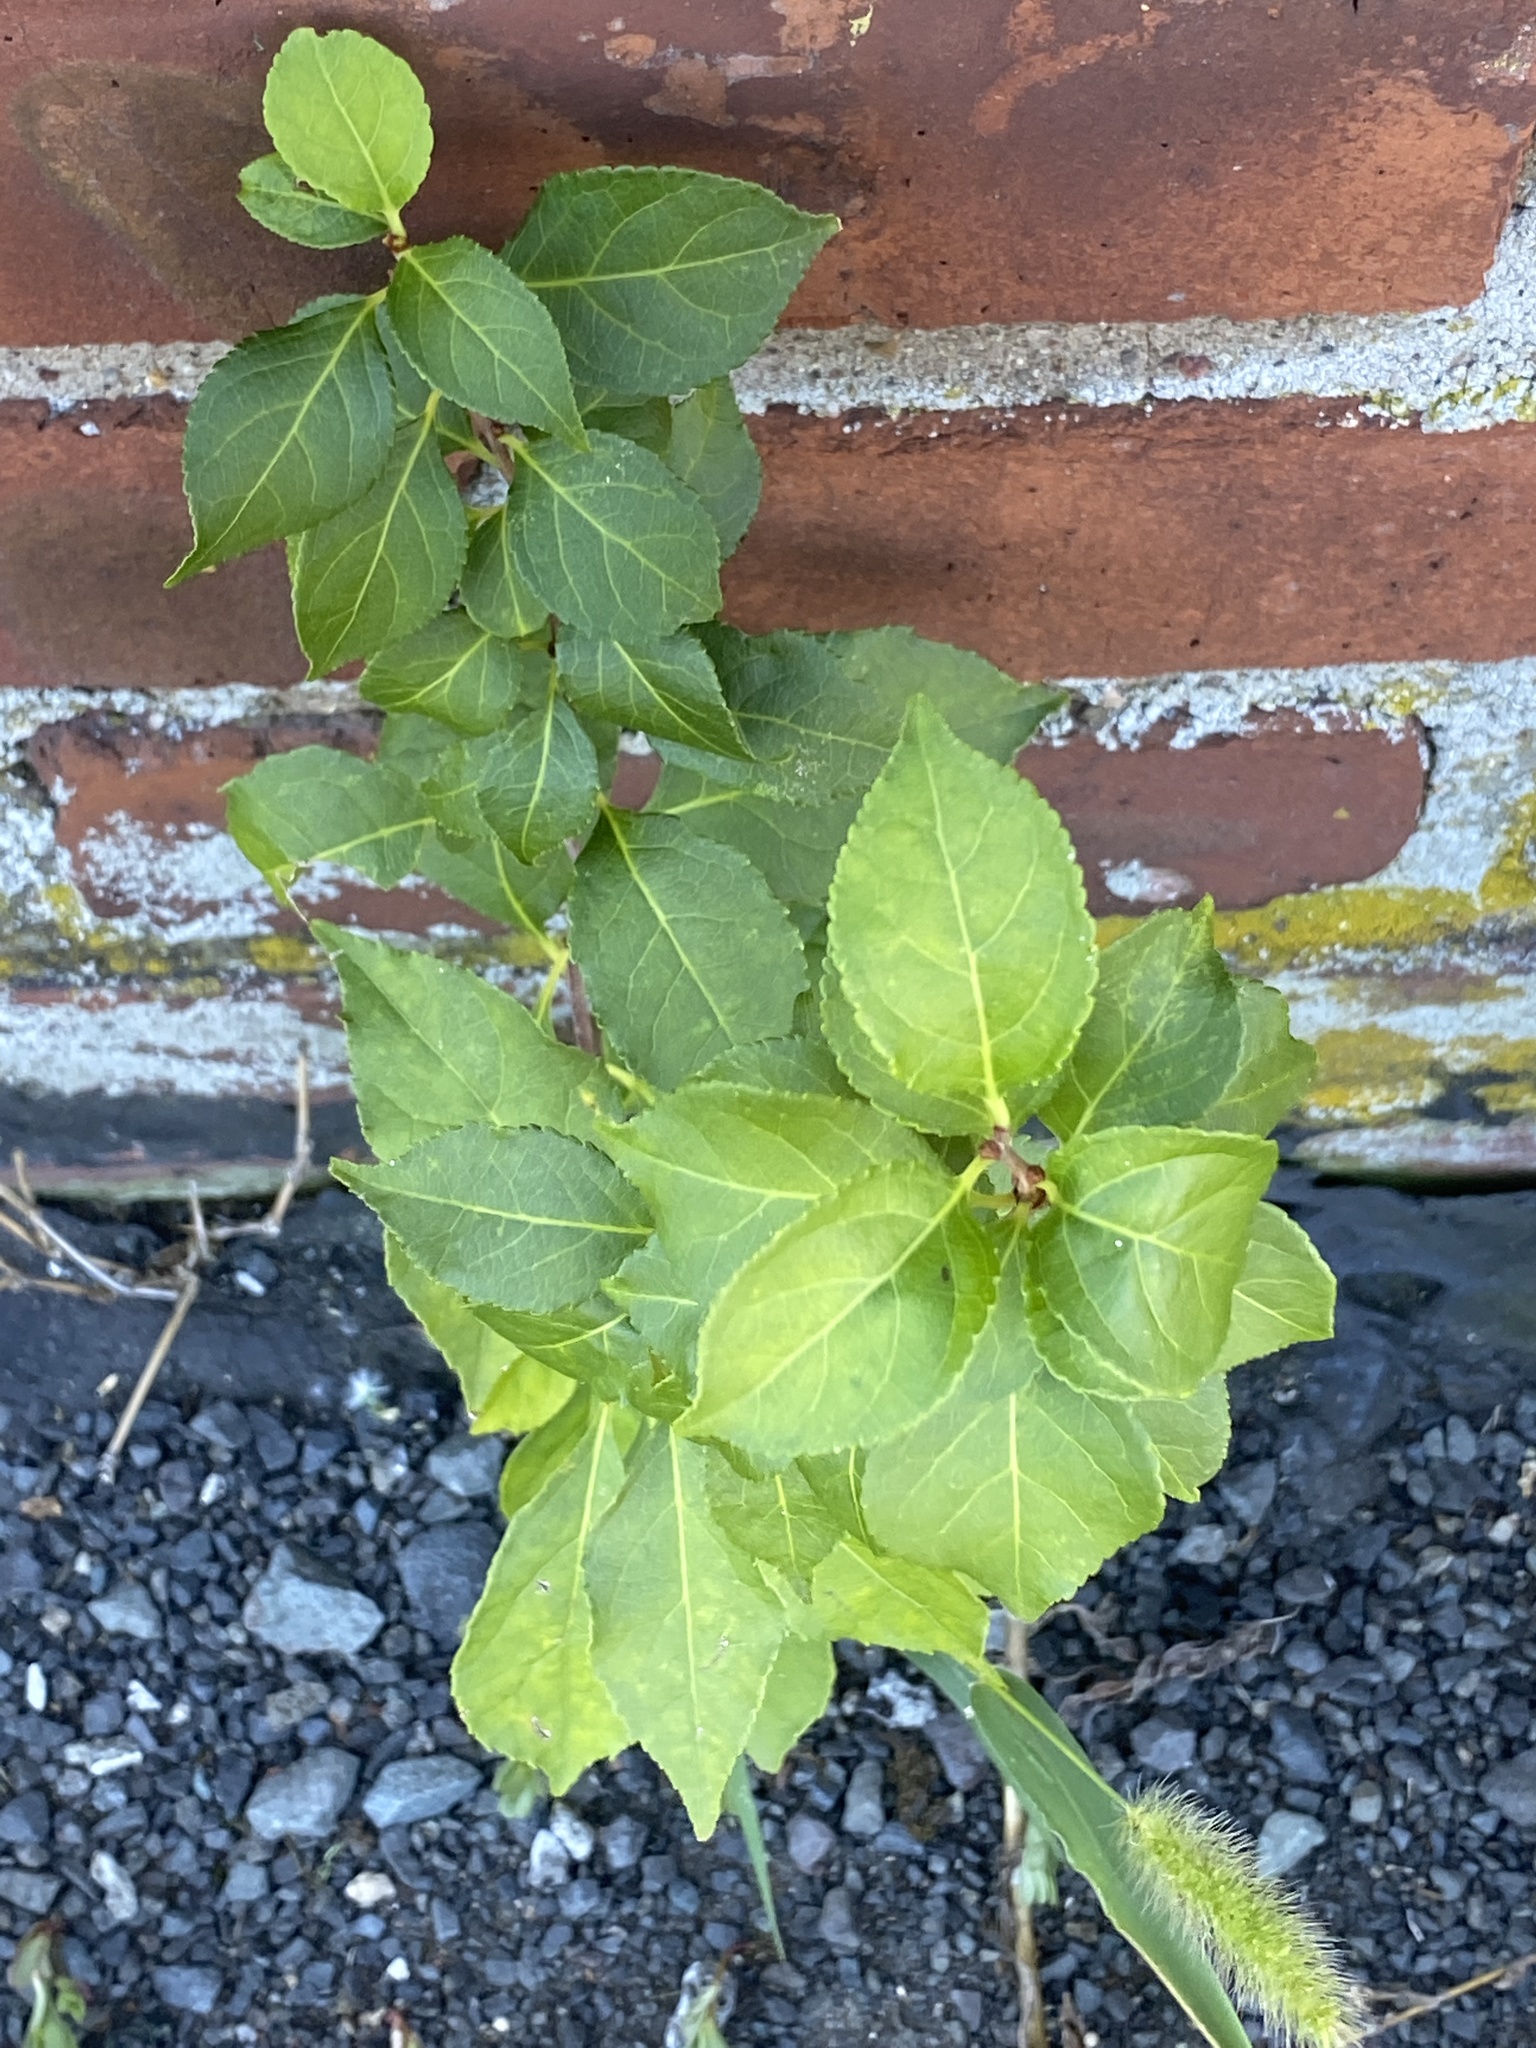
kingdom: Plantae
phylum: Tracheophyta
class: Magnoliopsida
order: Celastrales
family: Celastraceae
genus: Celastrus
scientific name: Celastrus orbiculatus
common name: Oriental bittersweet
